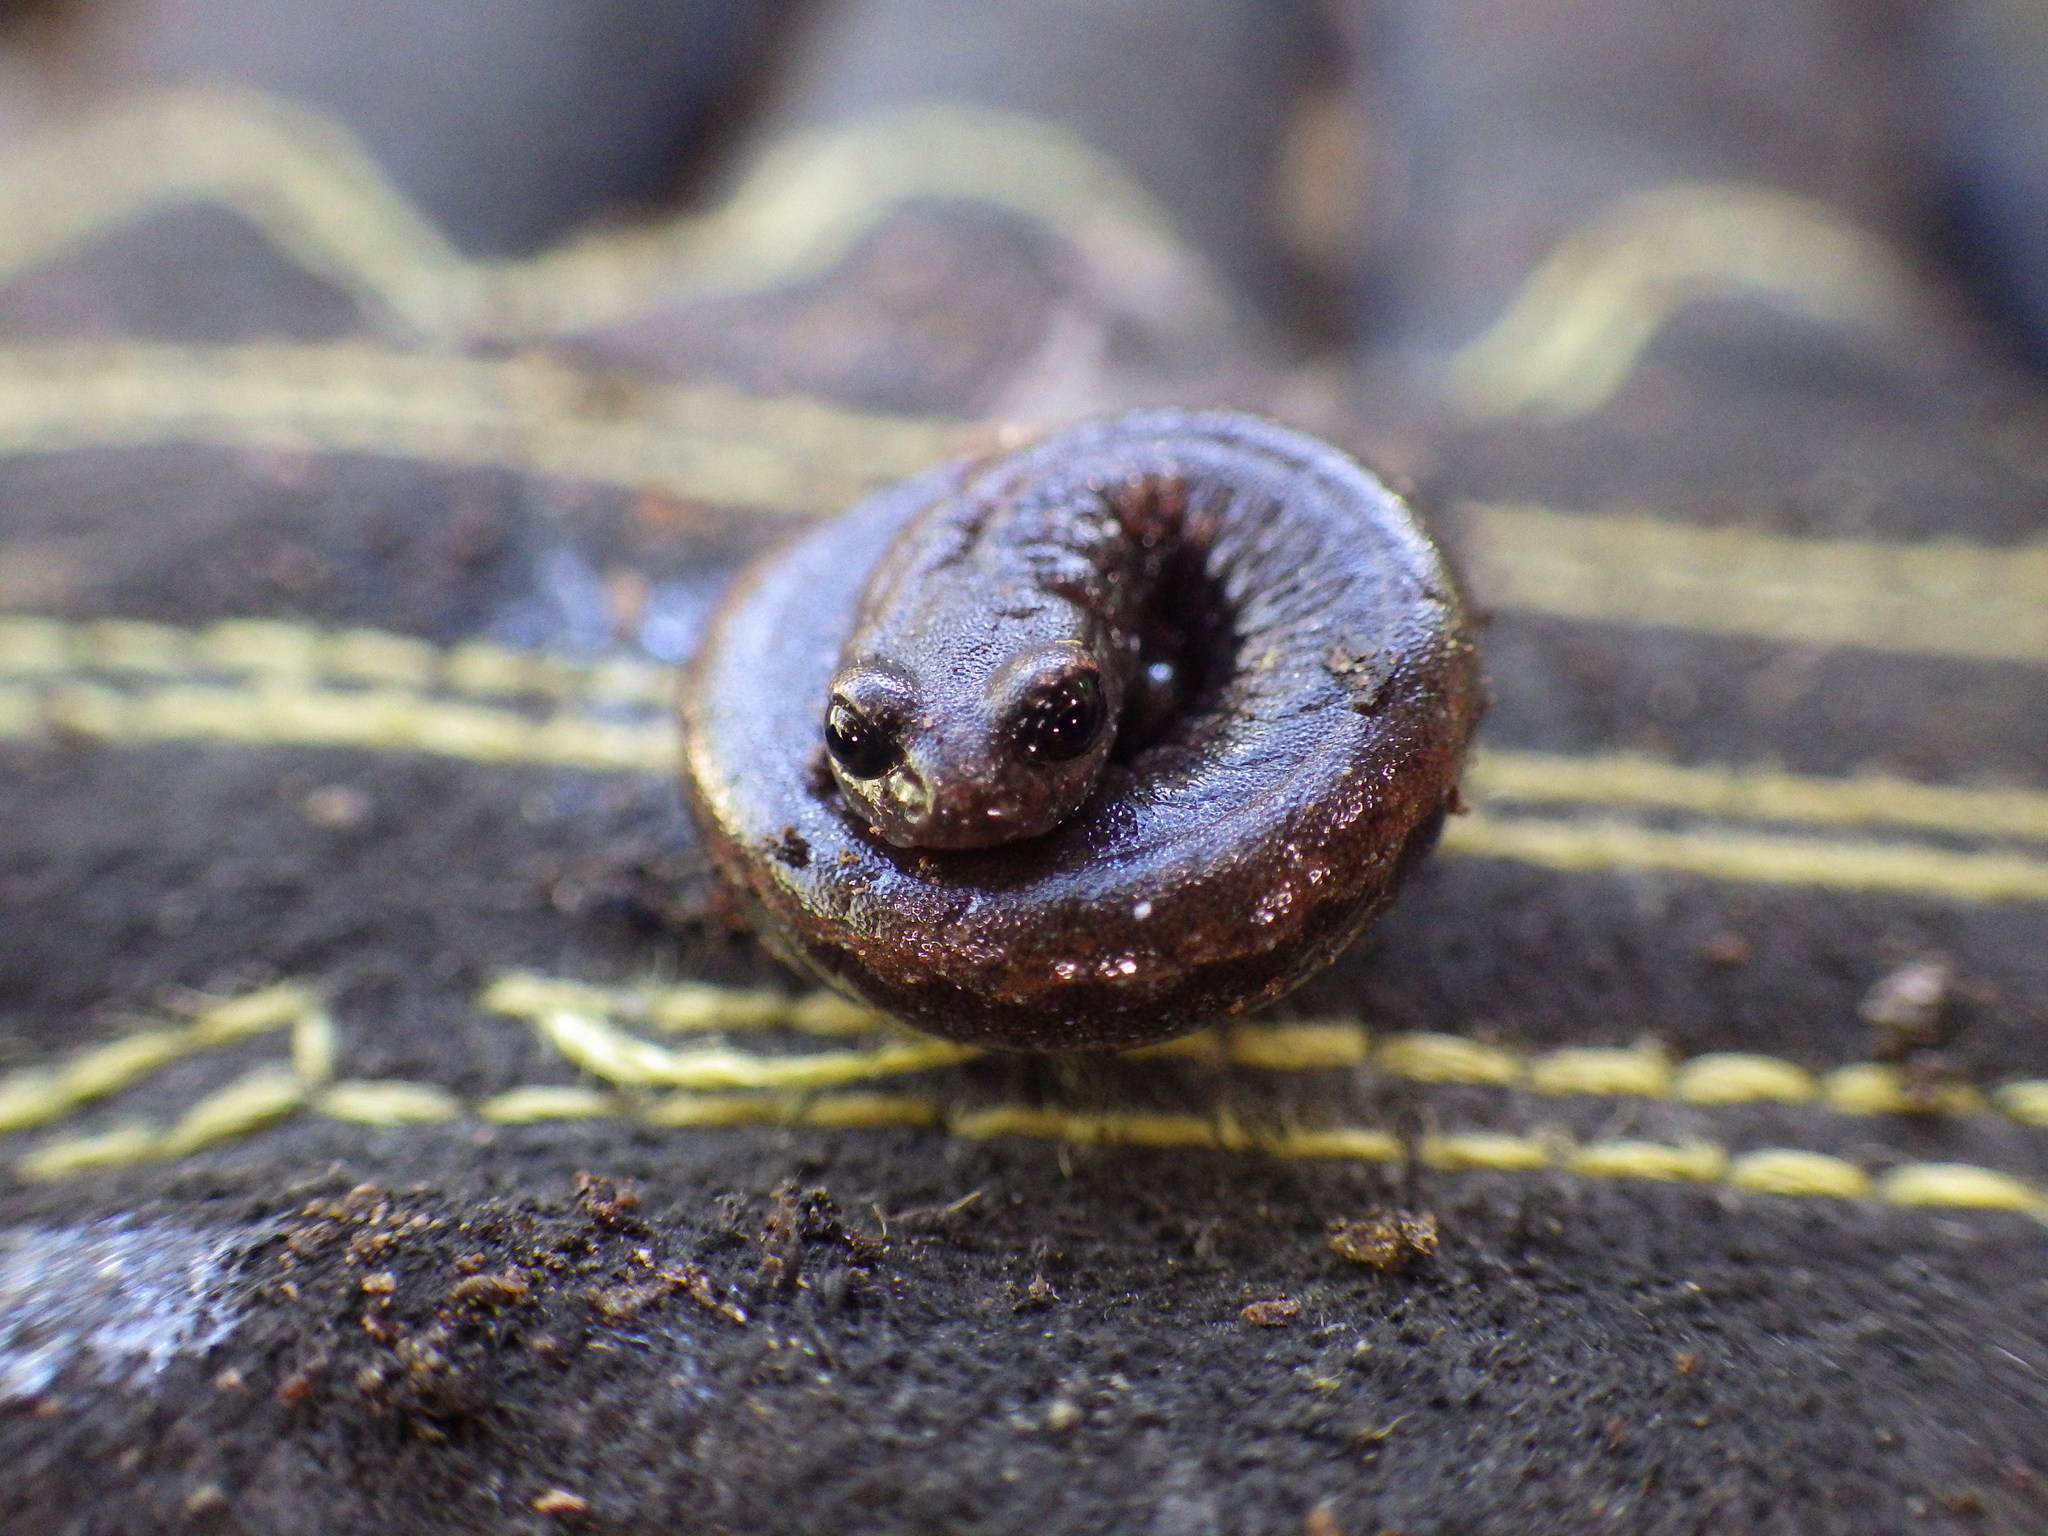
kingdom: Animalia
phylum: Chordata
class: Amphibia
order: Caudata
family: Plethodontidae
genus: Batrachoseps
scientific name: Batrachoseps nigriventris
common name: Black-bellied slender salamander
